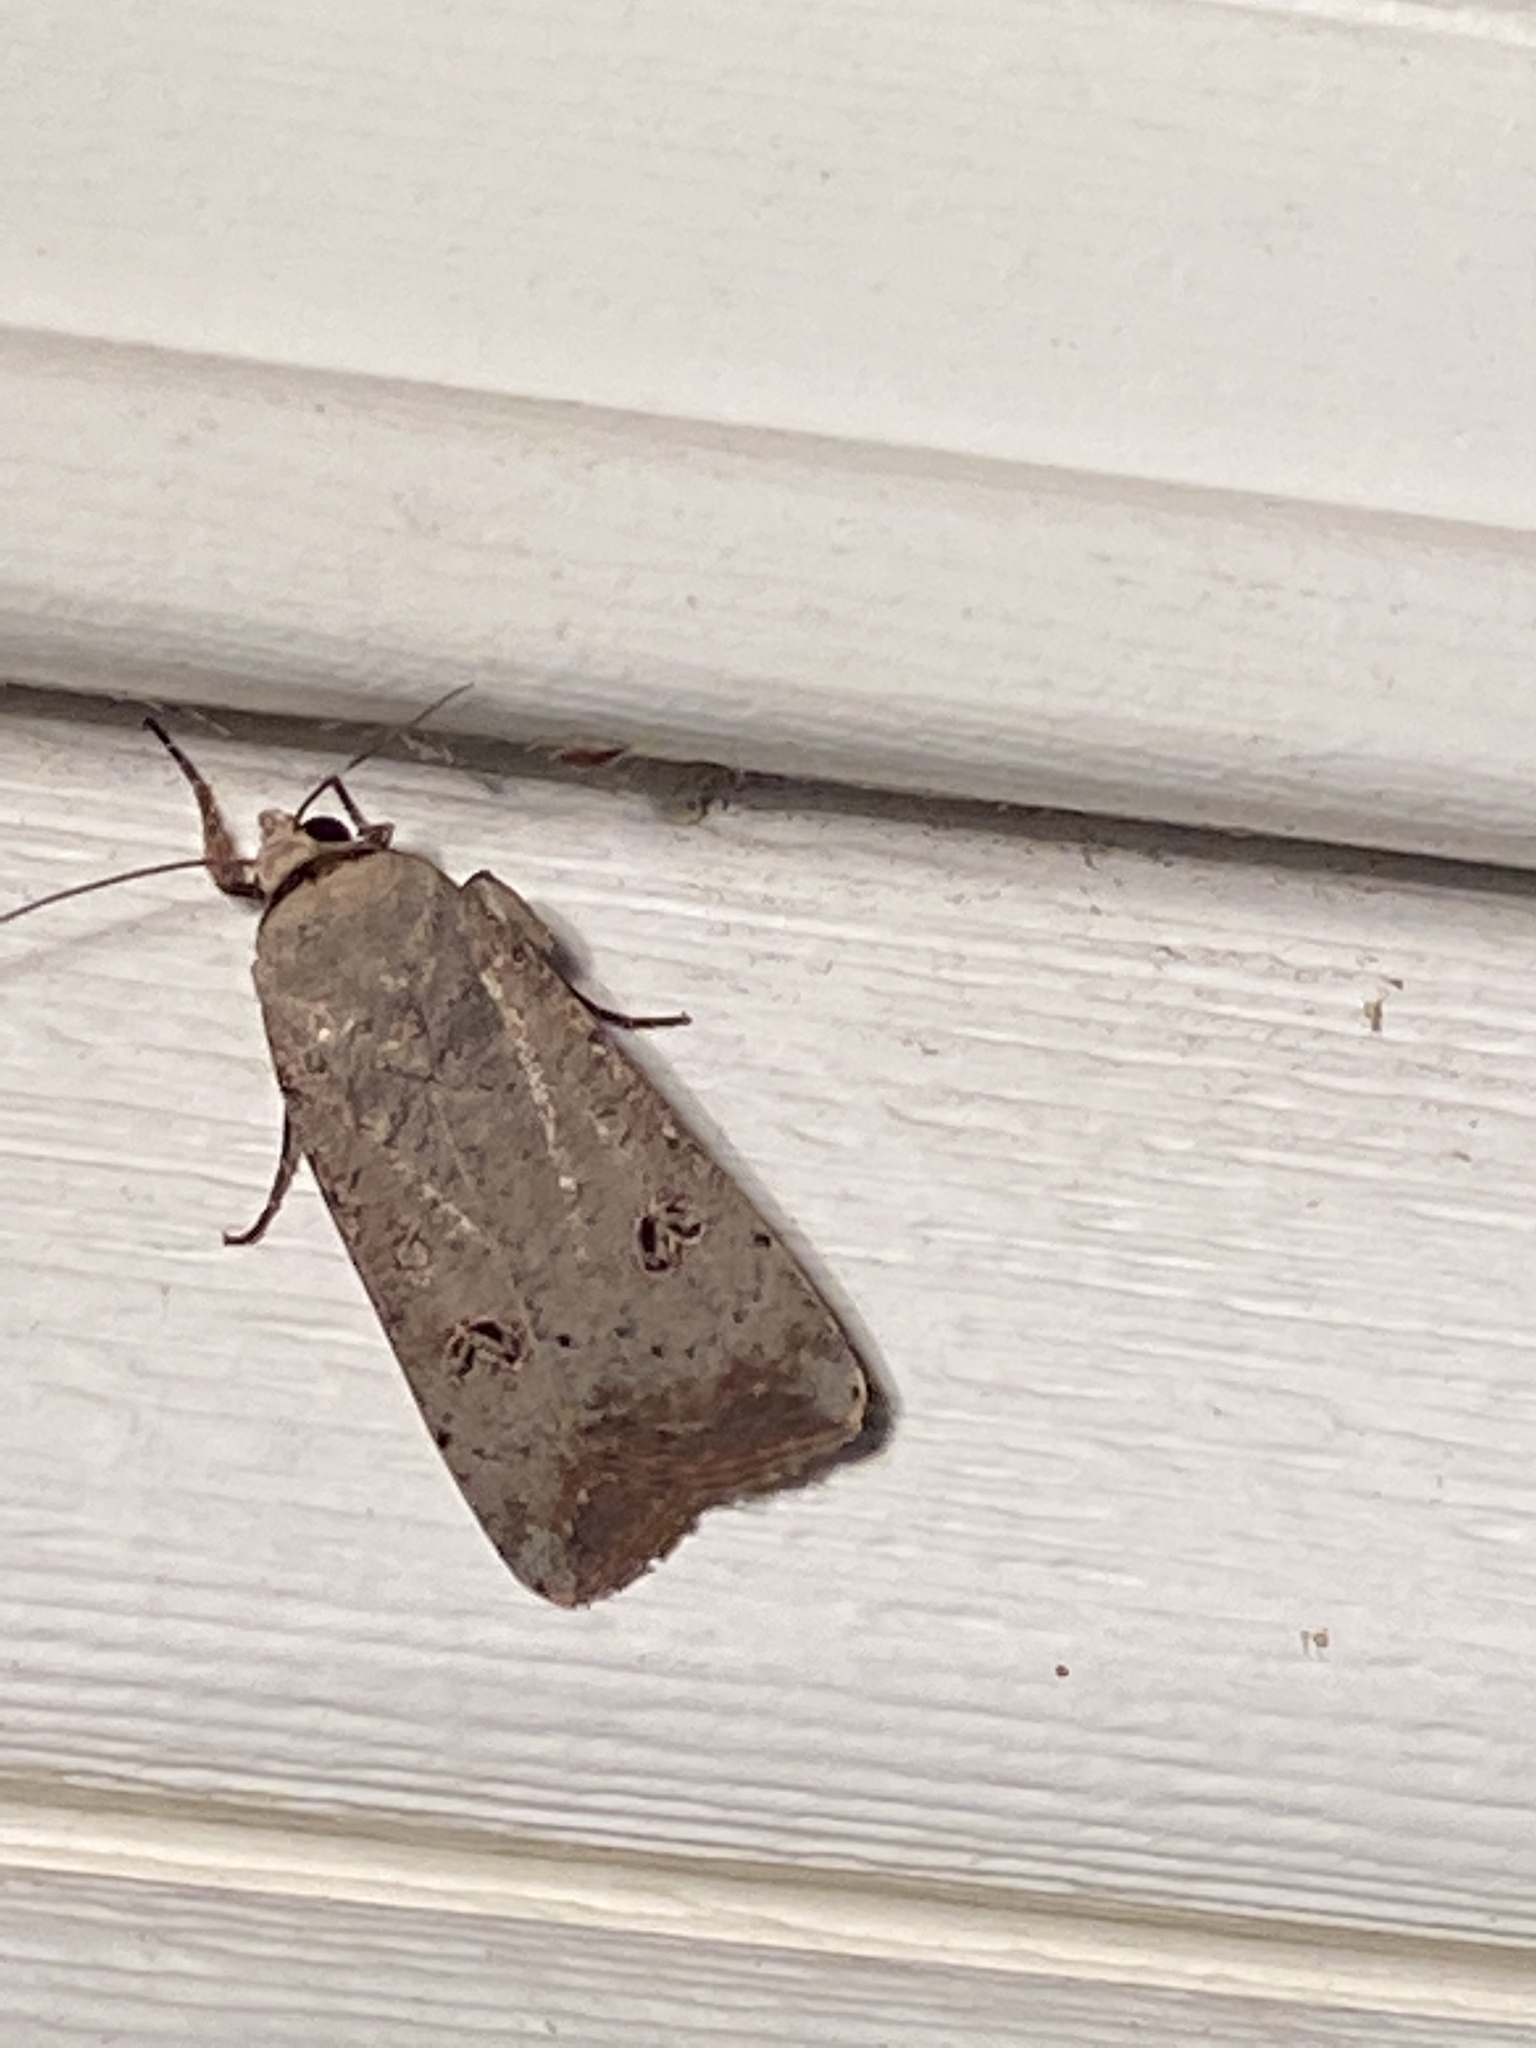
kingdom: Animalia
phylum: Arthropoda
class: Insecta
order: Lepidoptera
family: Noctuidae
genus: Anicla
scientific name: Anicla infecta
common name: Green cutworm
